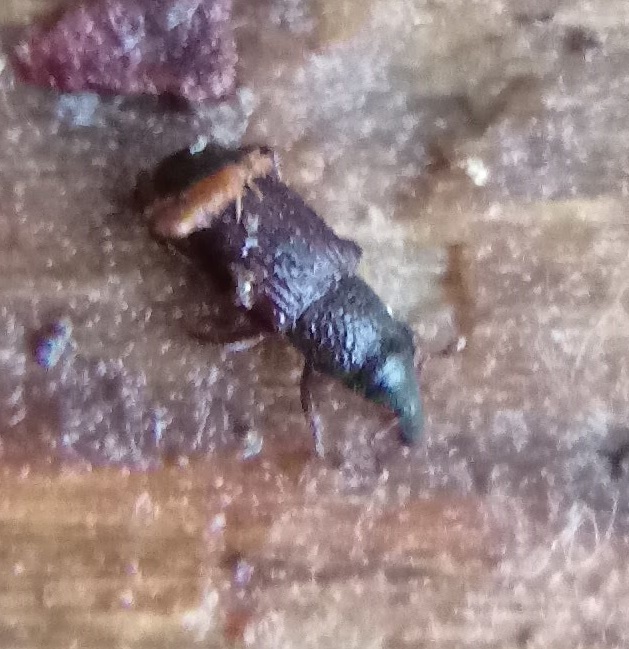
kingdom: Animalia
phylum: Arthropoda
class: Insecta
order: Coleoptera
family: Dryophthoridae
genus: Dryophthorus
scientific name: Dryophthorus americanus
